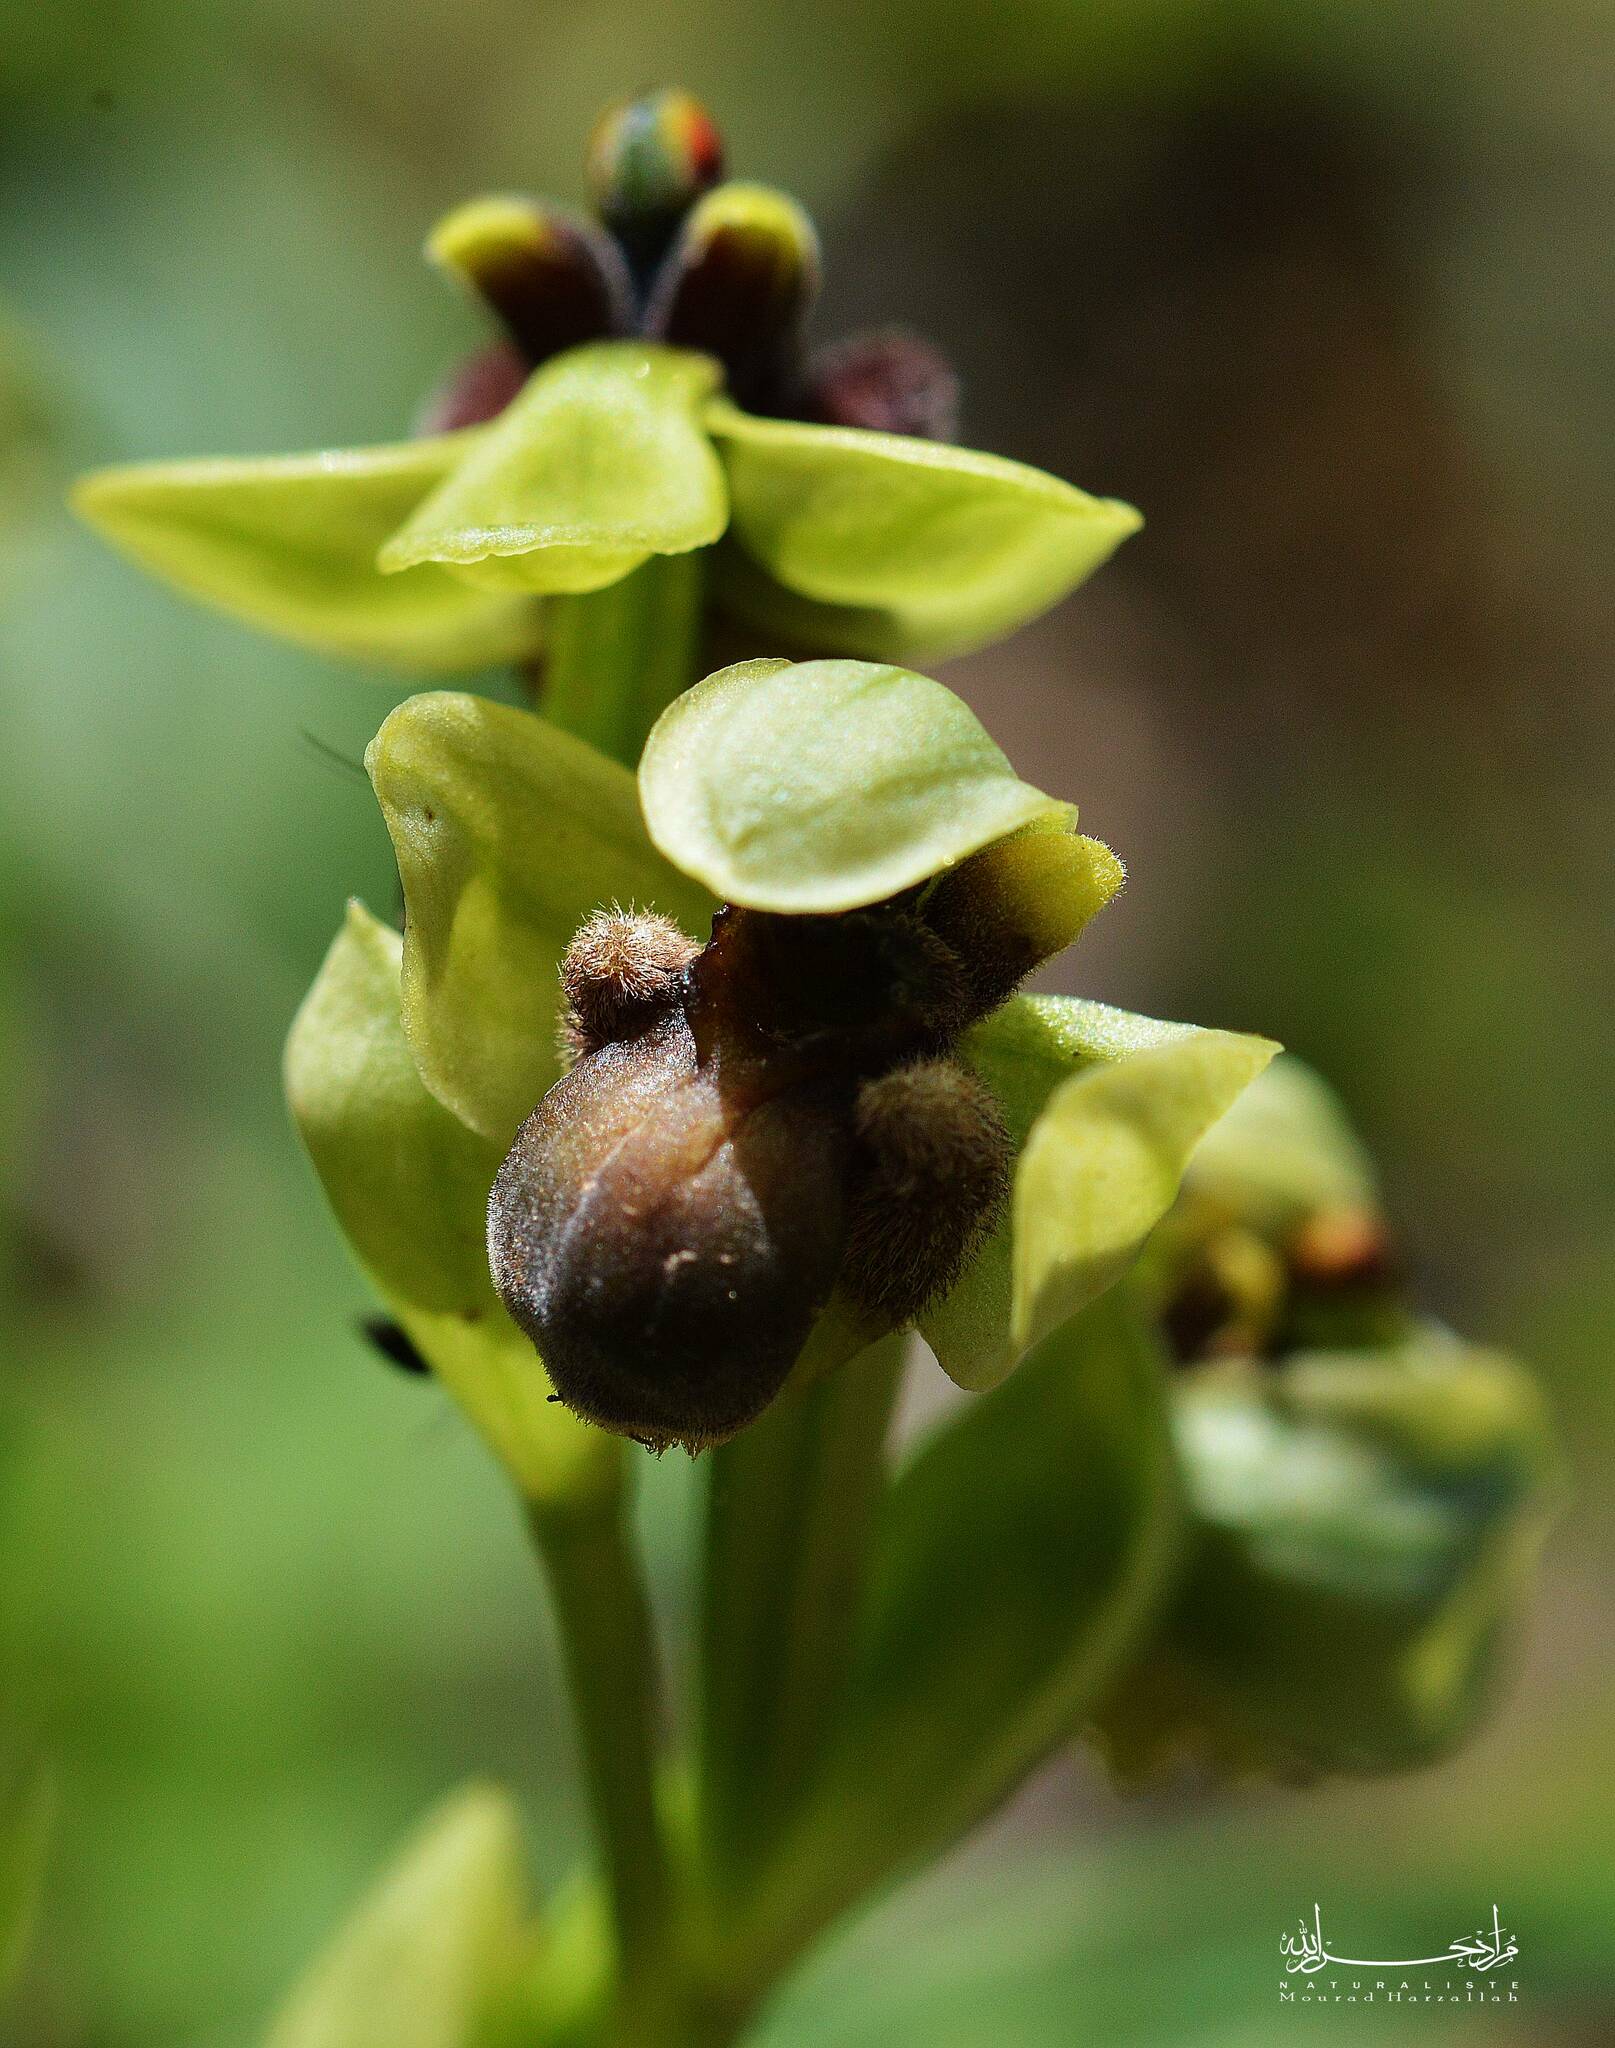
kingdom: Plantae
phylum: Tracheophyta
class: Liliopsida
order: Asparagales
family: Orchidaceae
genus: Ophrys
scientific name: Ophrys bombyliflora
